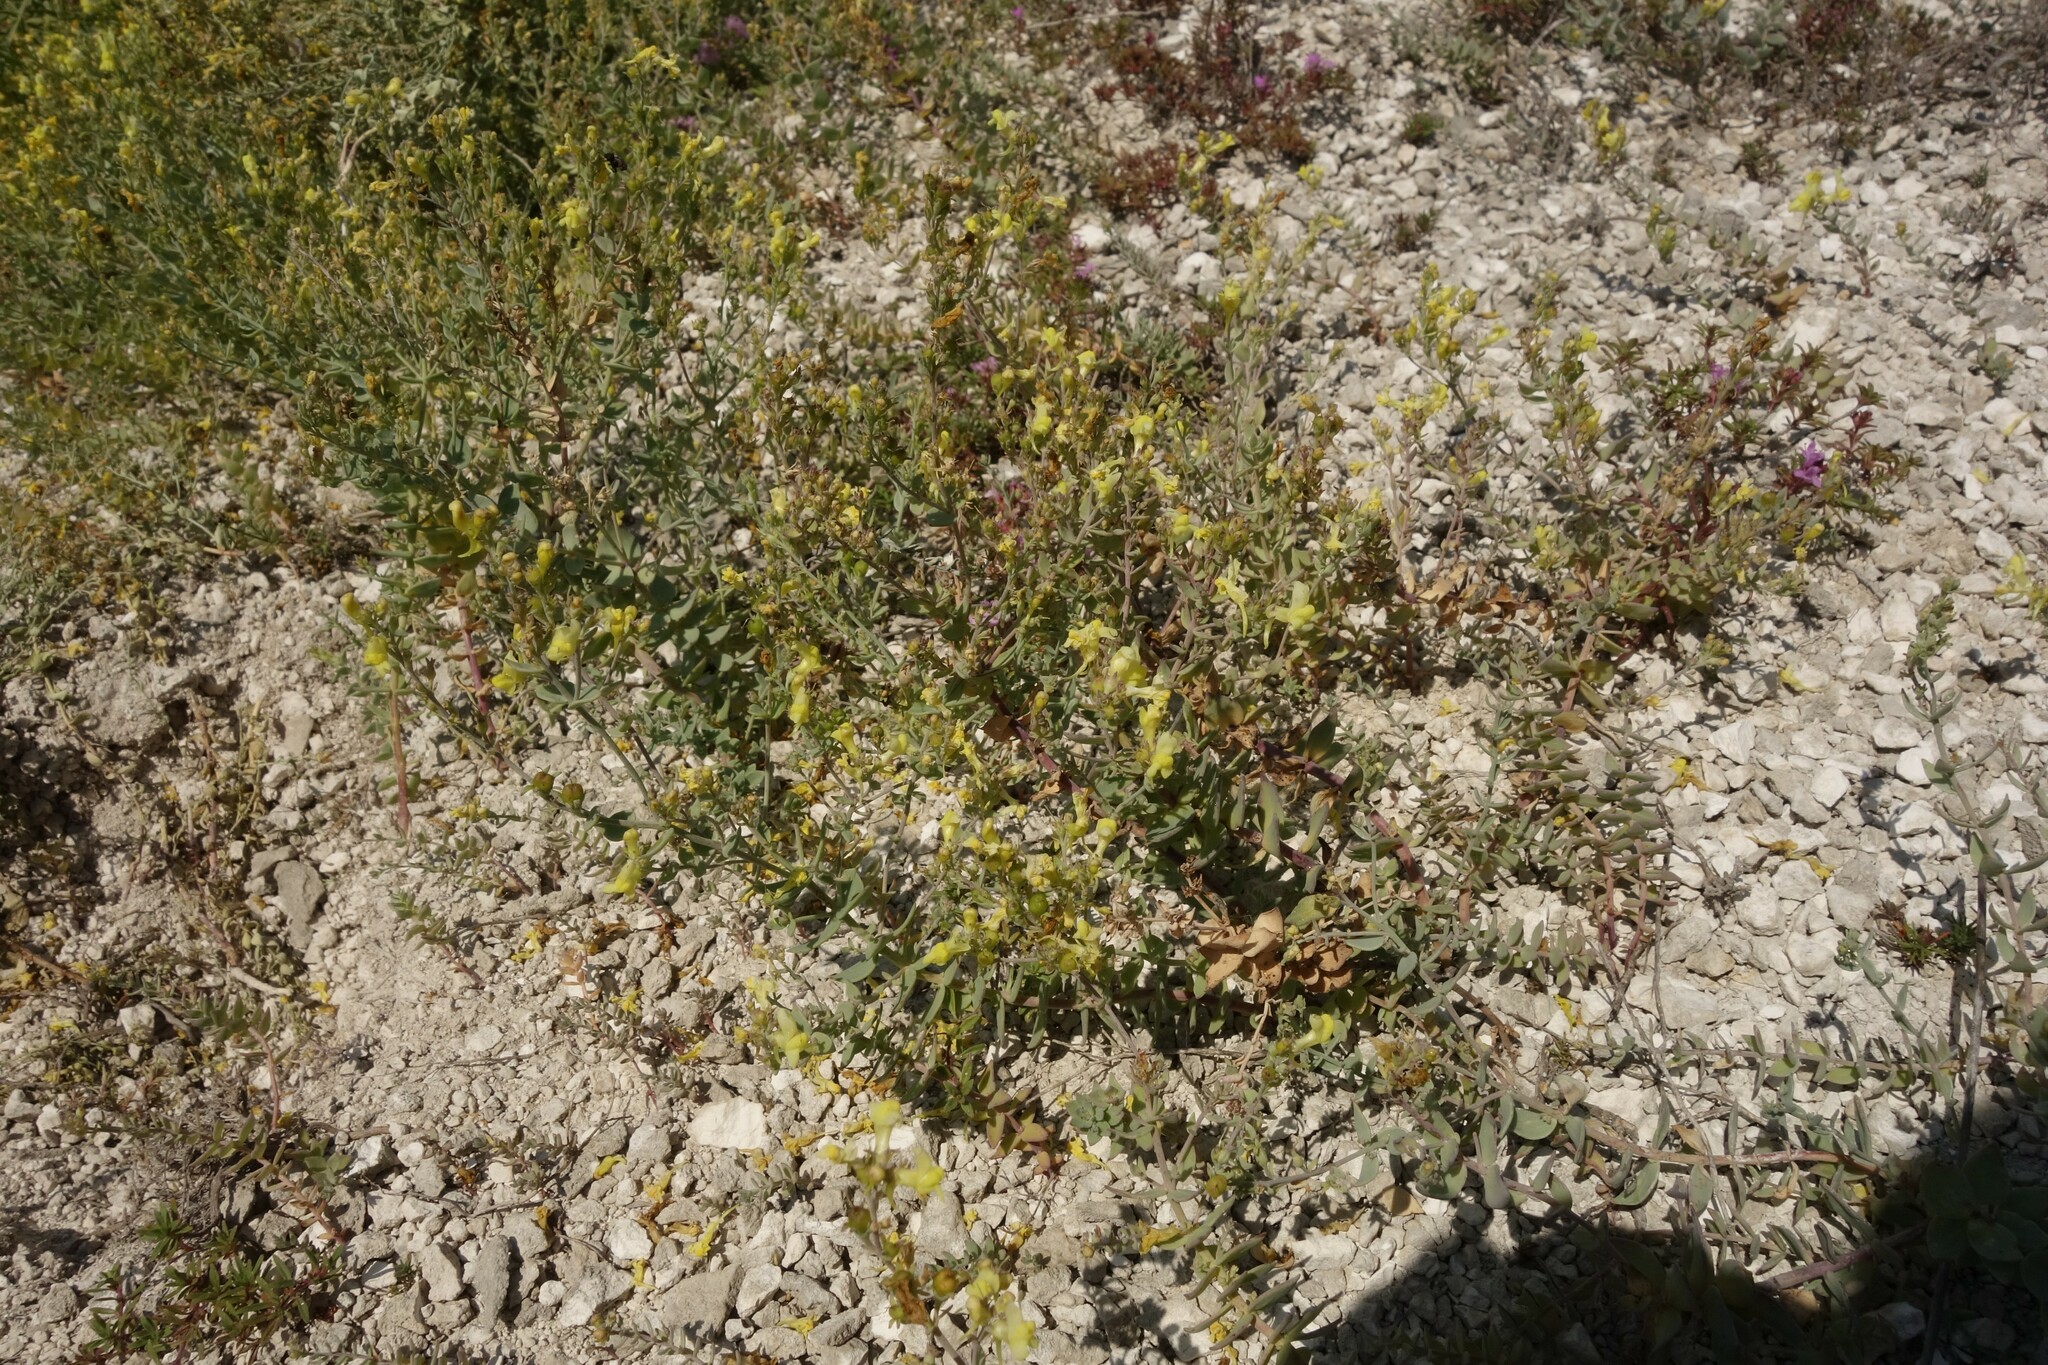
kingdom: Plantae
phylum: Tracheophyta
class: Magnoliopsida
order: Lamiales
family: Plantaginaceae
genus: Linaria
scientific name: Linaria cretacea
